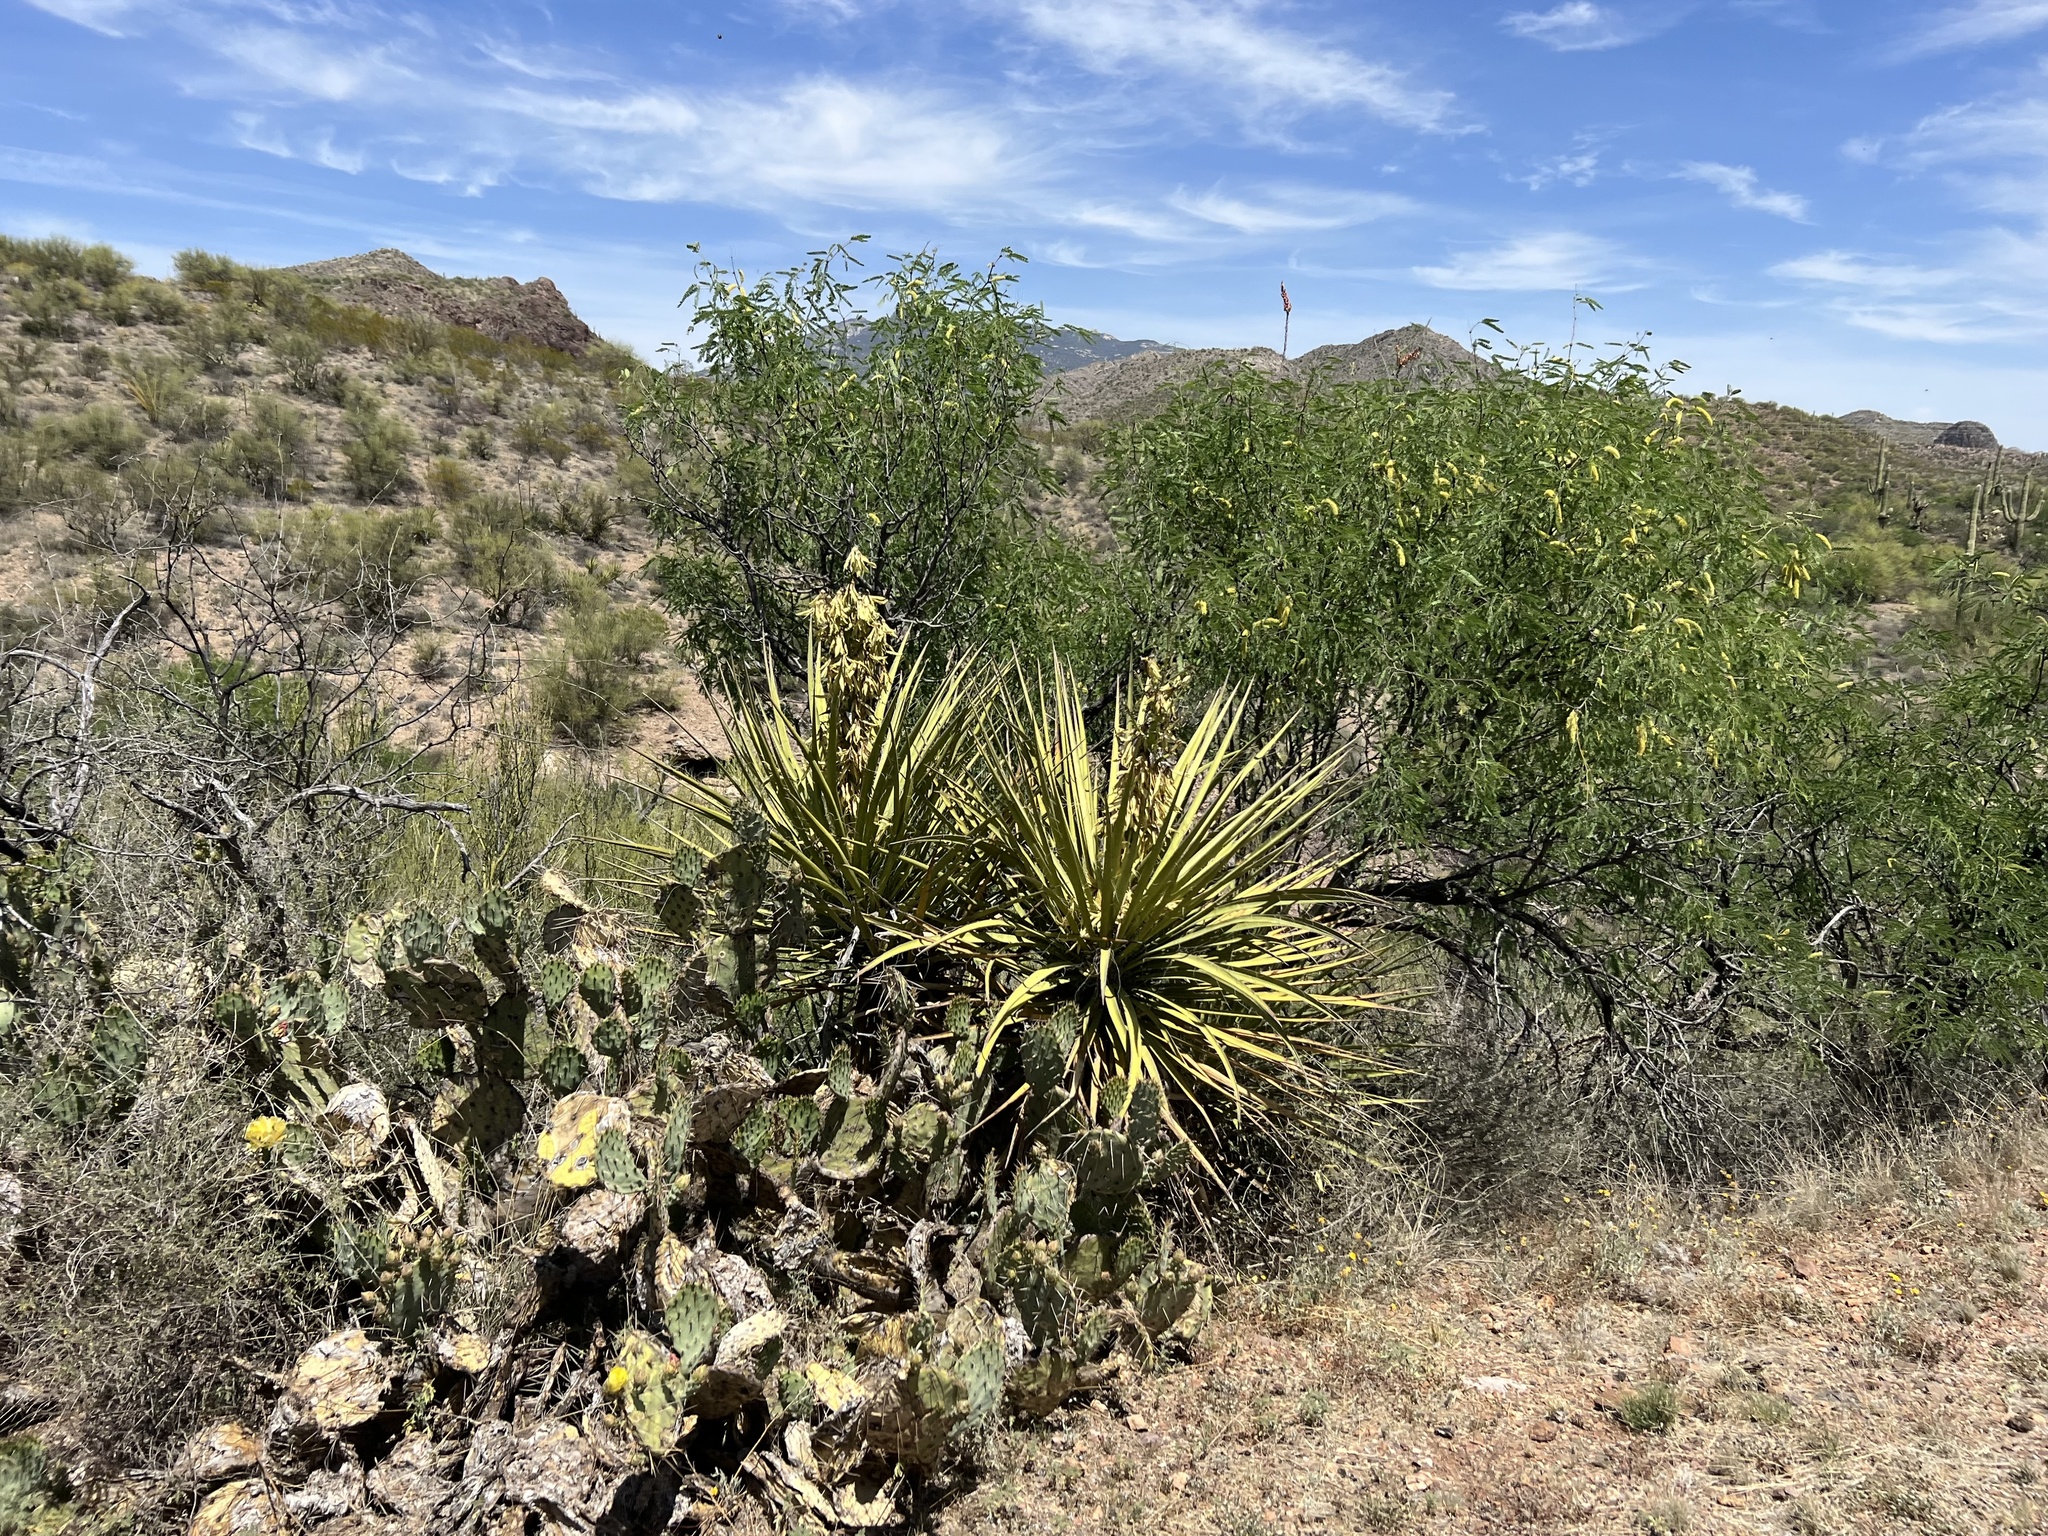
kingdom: Plantae
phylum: Tracheophyta
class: Liliopsida
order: Asparagales
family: Asparagaceae
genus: Yucca
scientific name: Yucca baccata
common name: Banana yucca
